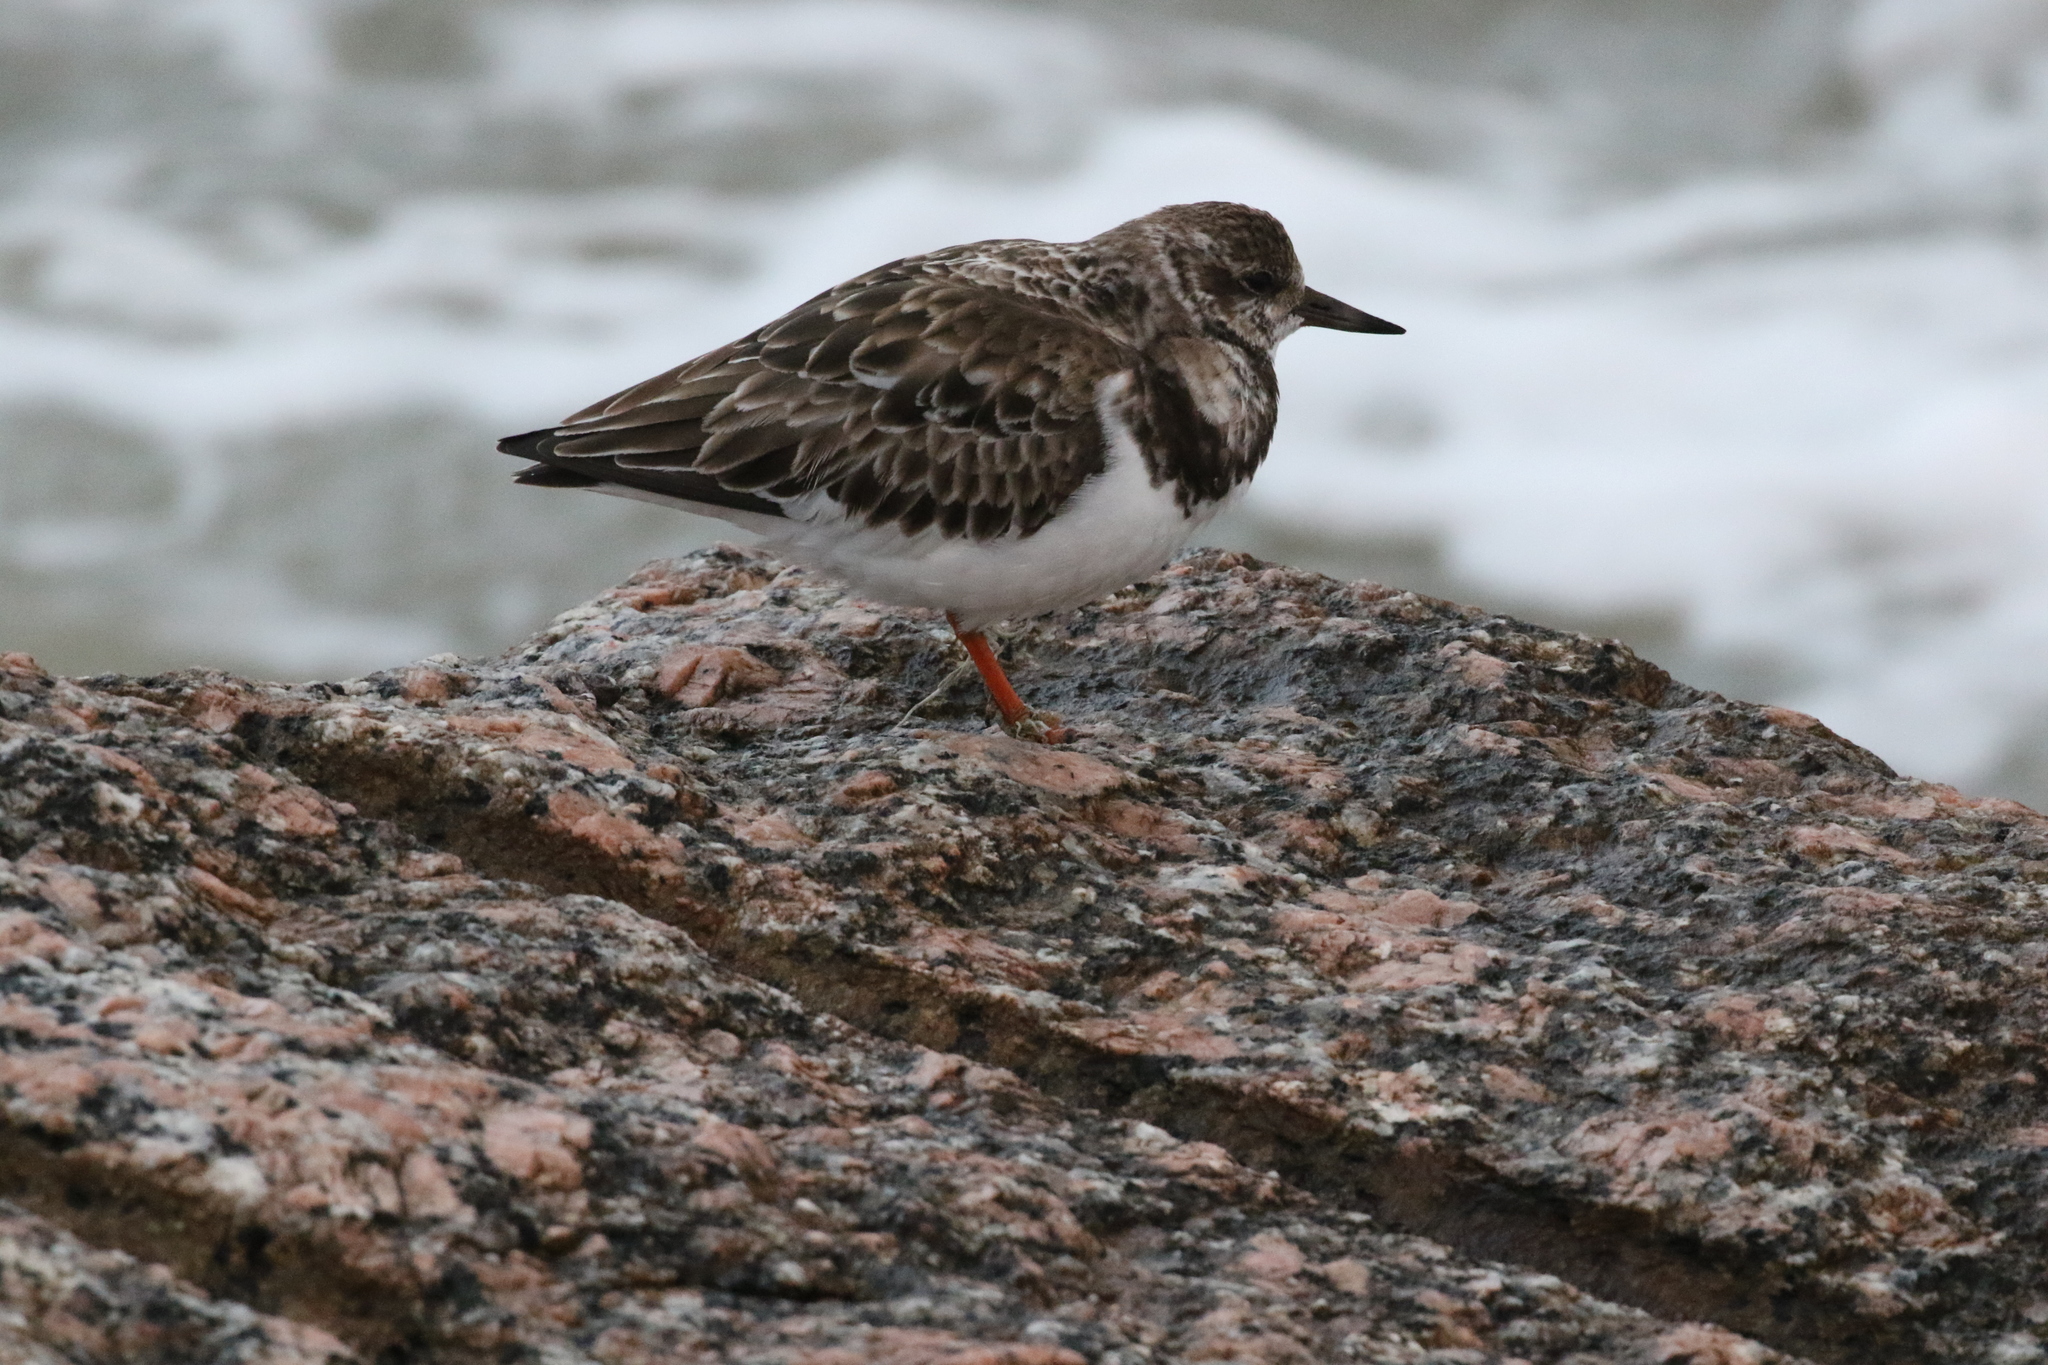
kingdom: Animalia
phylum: Chordata
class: Aves
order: Charadriiformes
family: Scolopacidae
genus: Arenaria
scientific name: Arenaria interpres
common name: Ruddy turnstone
